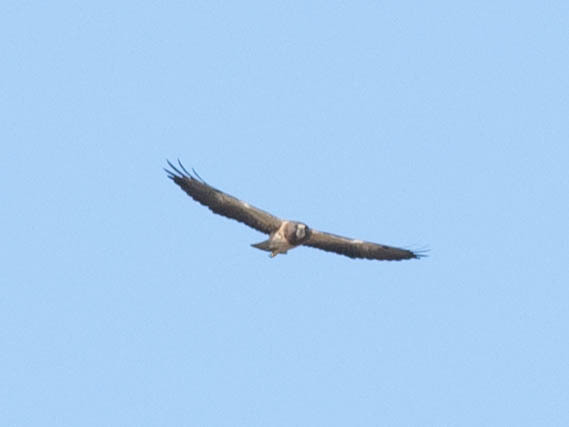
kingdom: Animalia
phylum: Chordata
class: Aves
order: Accipitriformes
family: Accipitridae
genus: Buteo
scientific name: Buteo swainsoni
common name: Swainson's hawk
